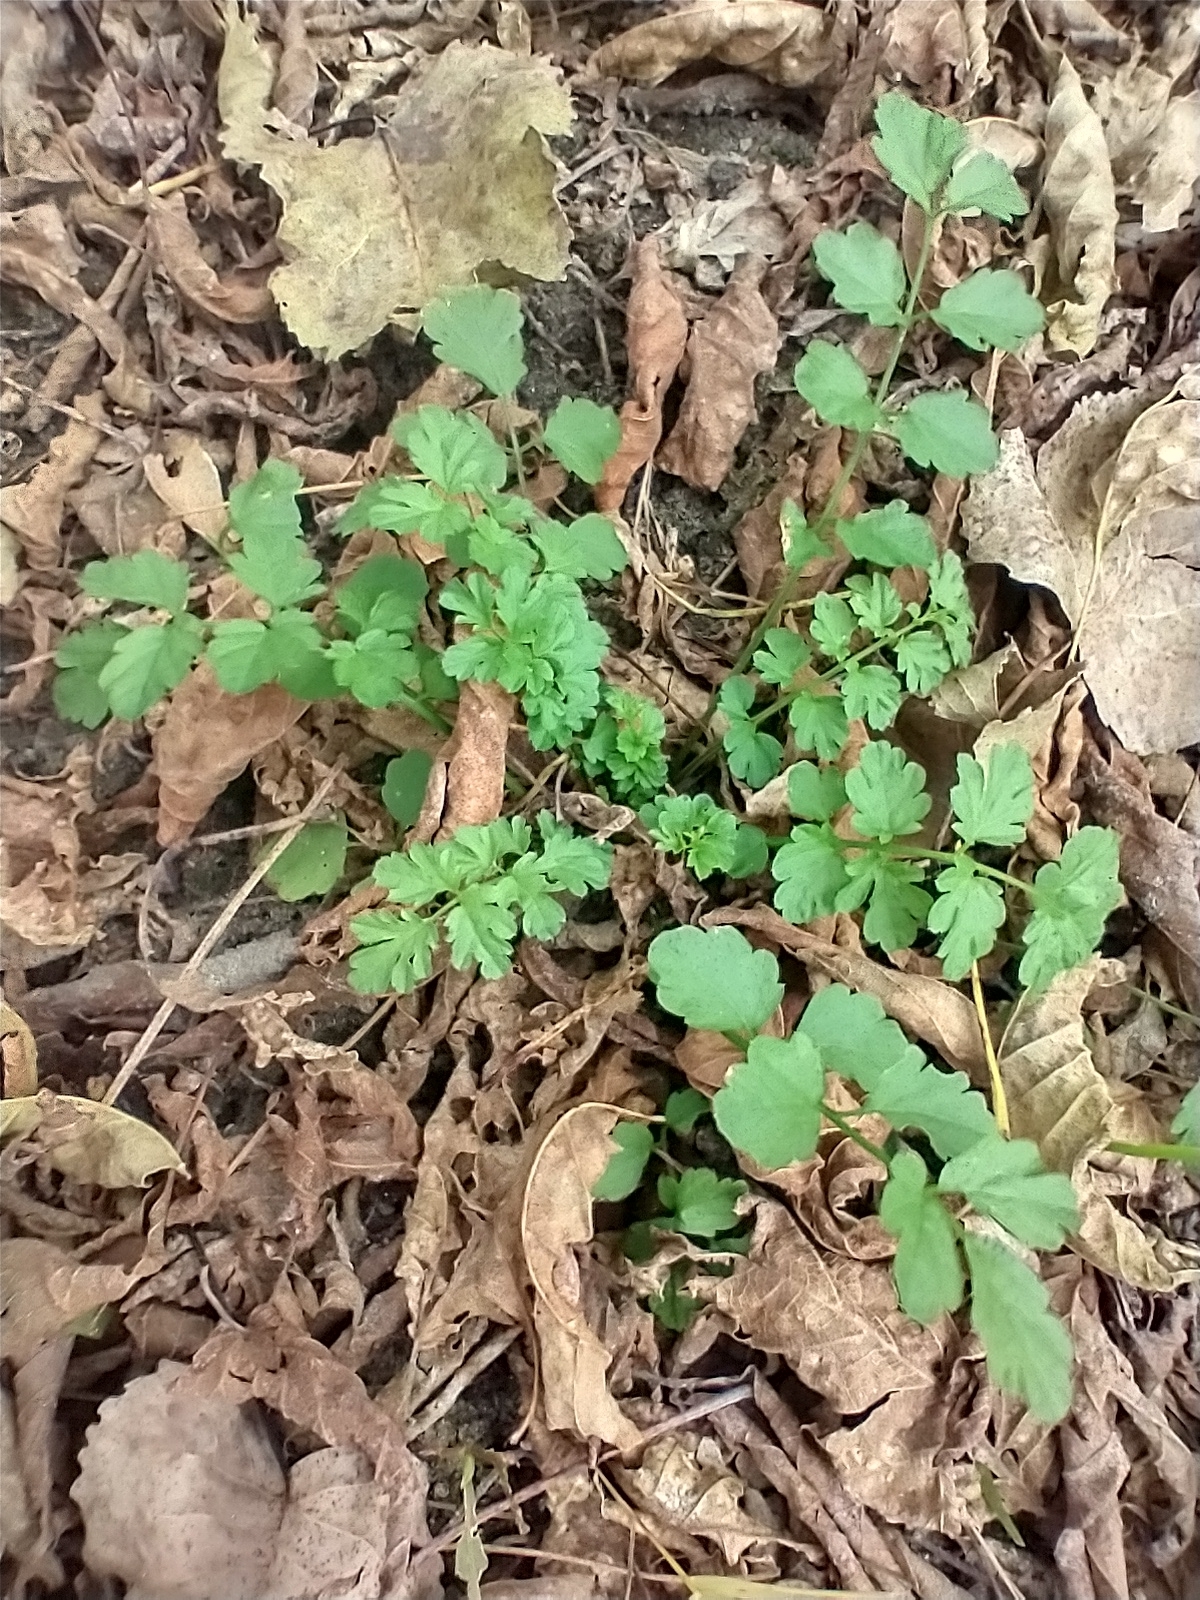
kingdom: Plantae
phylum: Tracheophyta
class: Magnoliopsida
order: Brassicales
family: Brassicaceae
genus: Cardamine
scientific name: Cardamine impatiens
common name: Narrow-leaved bitter-cress
